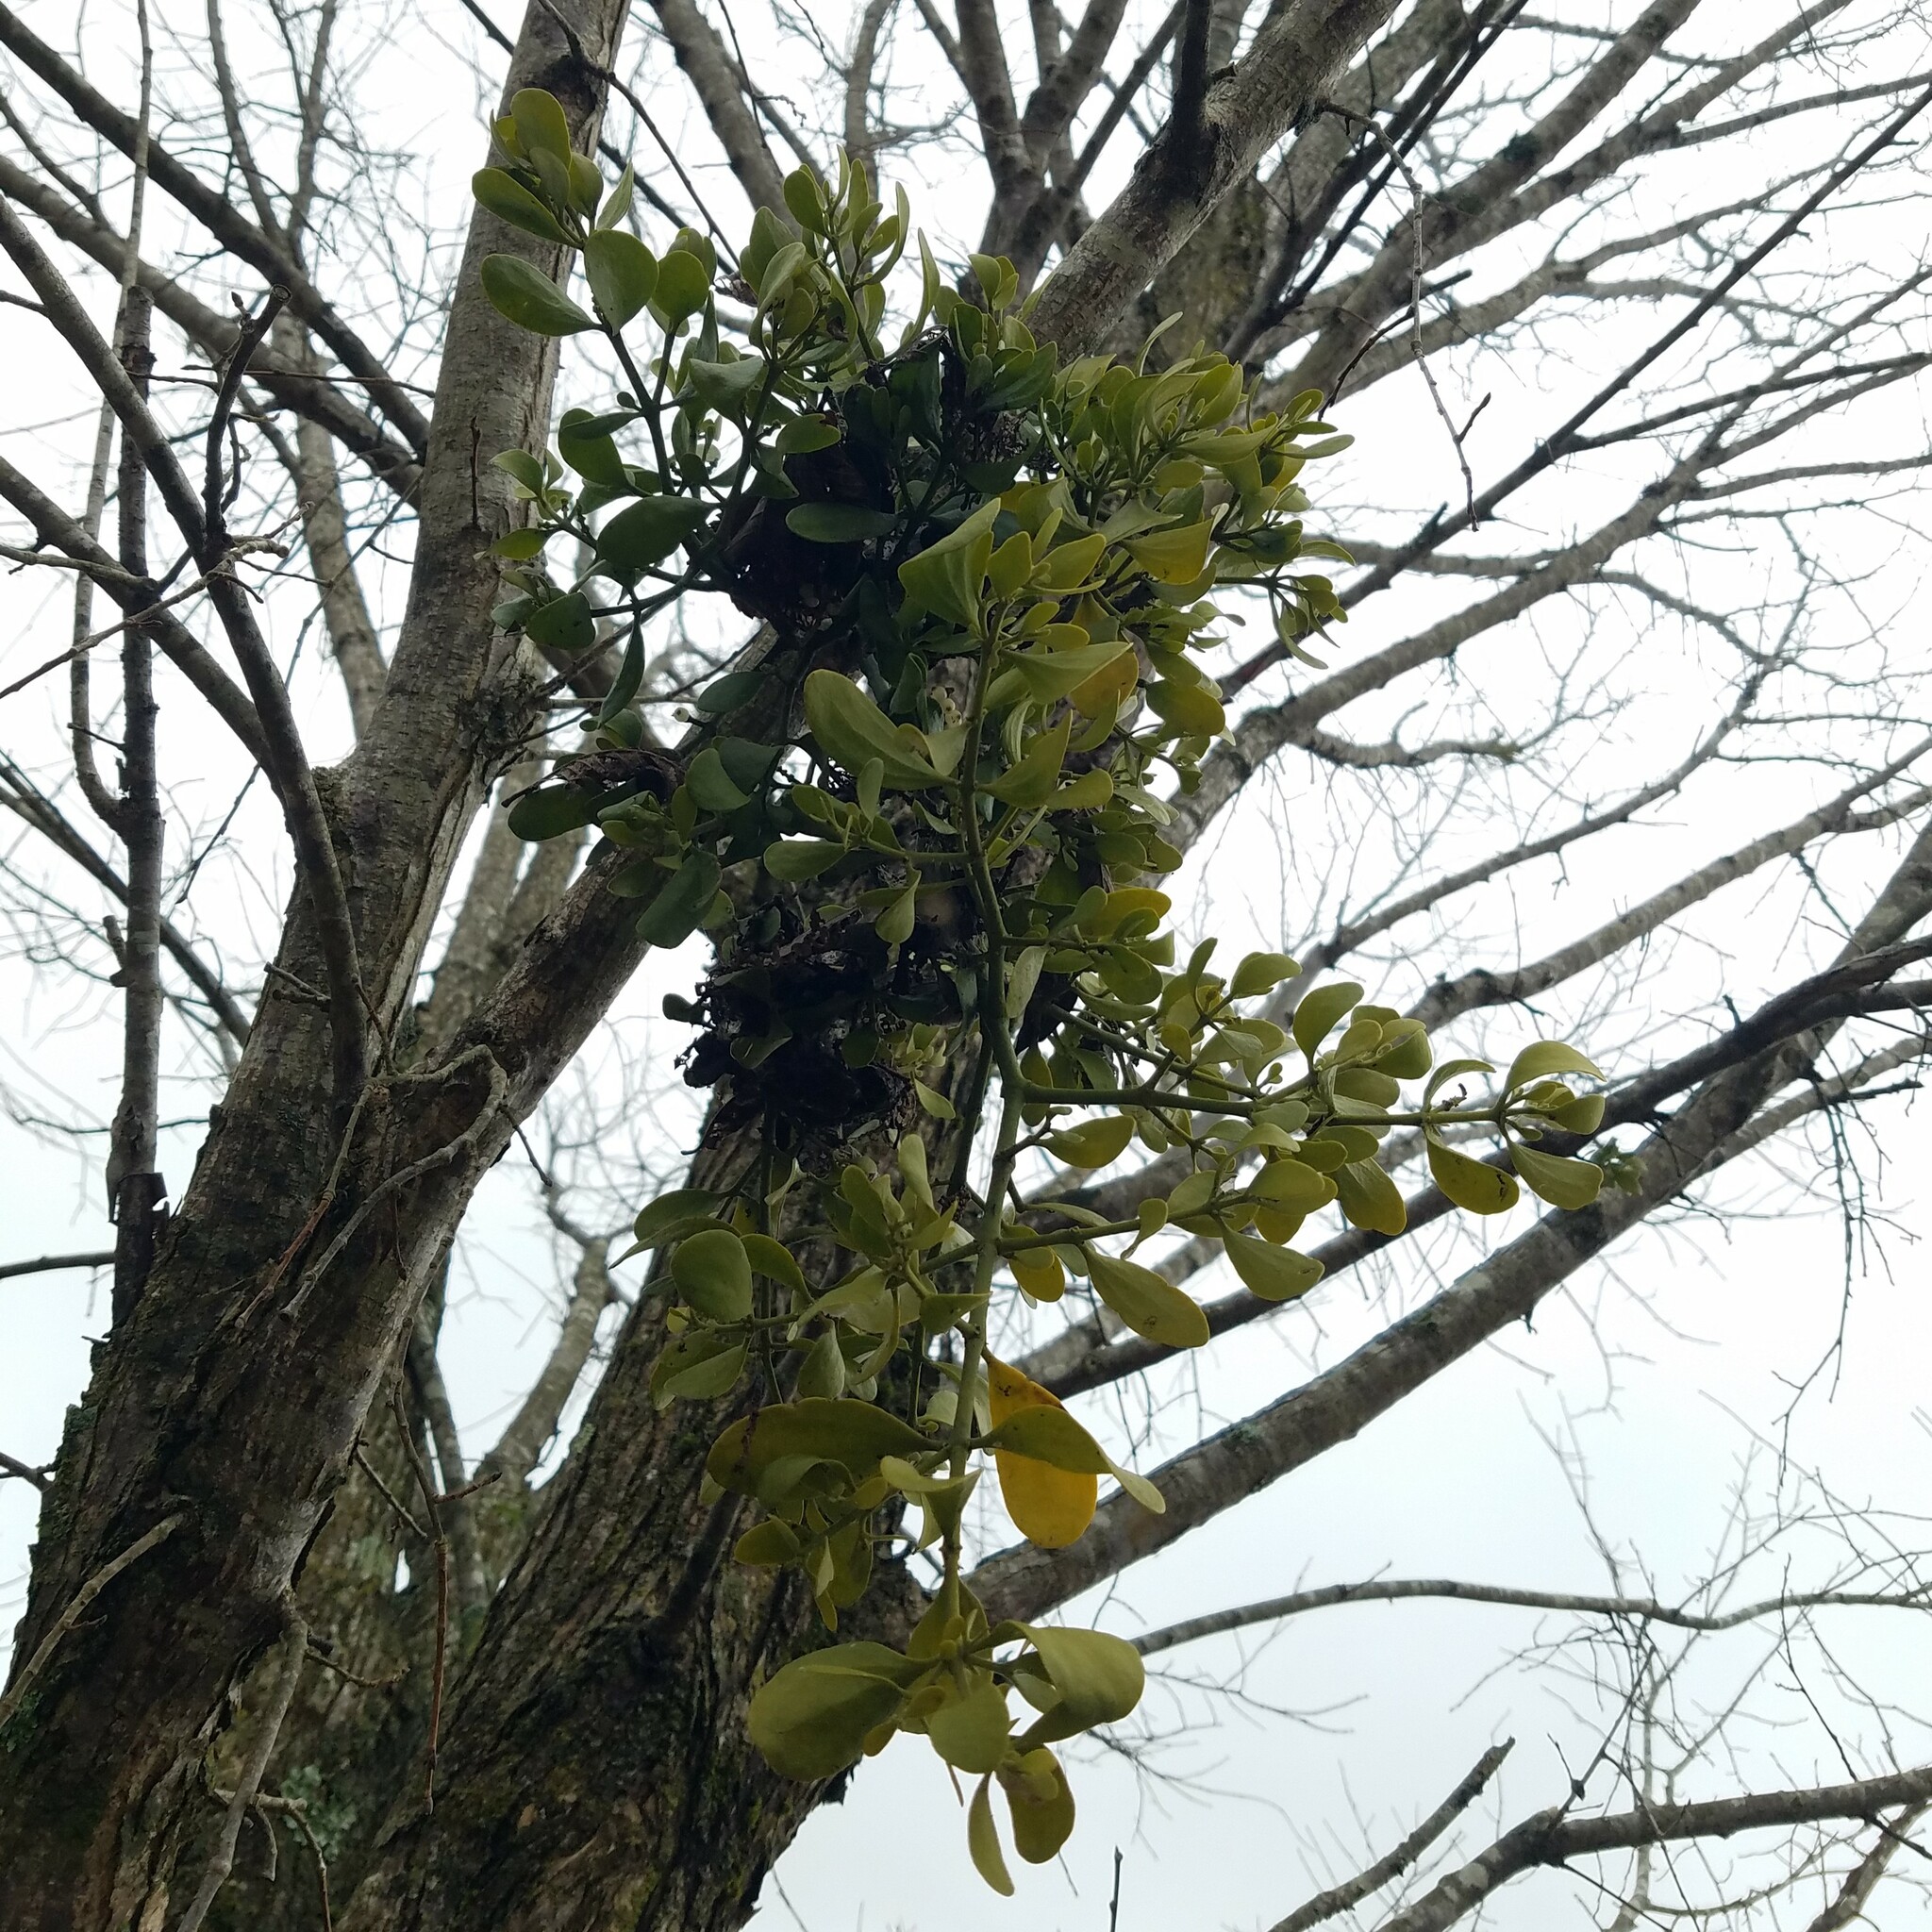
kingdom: Plantae
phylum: Tracheophyta
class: Magnoliopsida
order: Santalales
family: Viscaceae
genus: Phoradendron
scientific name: Phoradendron leucarpum
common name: Pacific mistletoe
